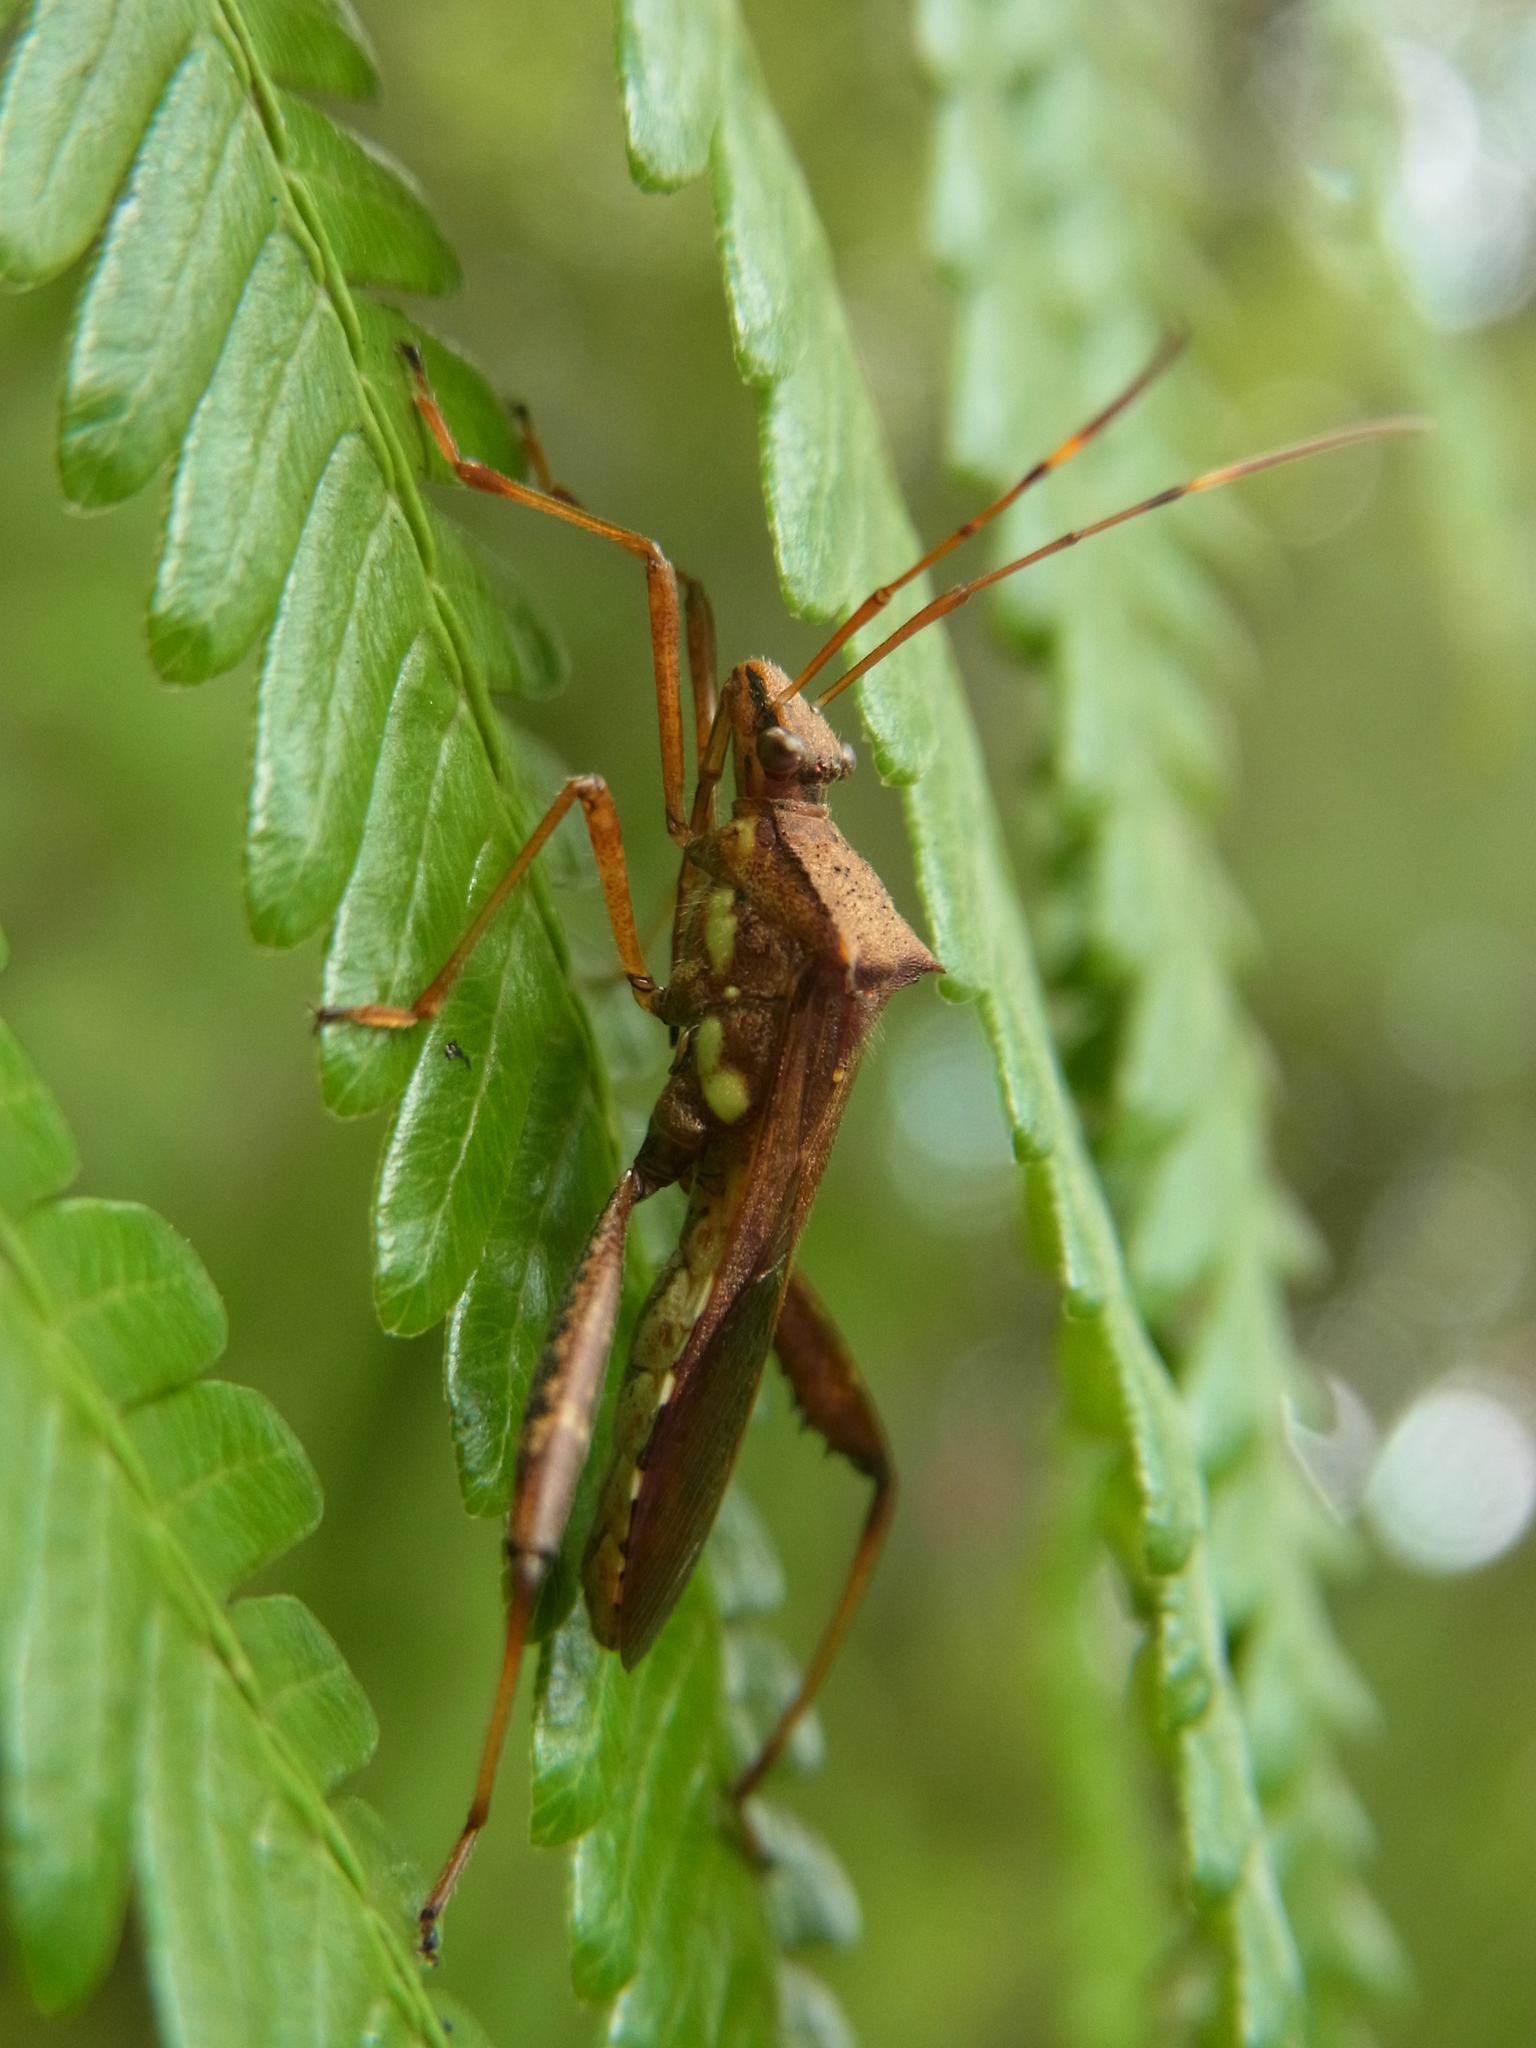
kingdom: Animalia
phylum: Arthropoda
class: Insecta
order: Hemiptera
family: Alydidae
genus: Riptortus
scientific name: Riptortus pedestris
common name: Bean bug
